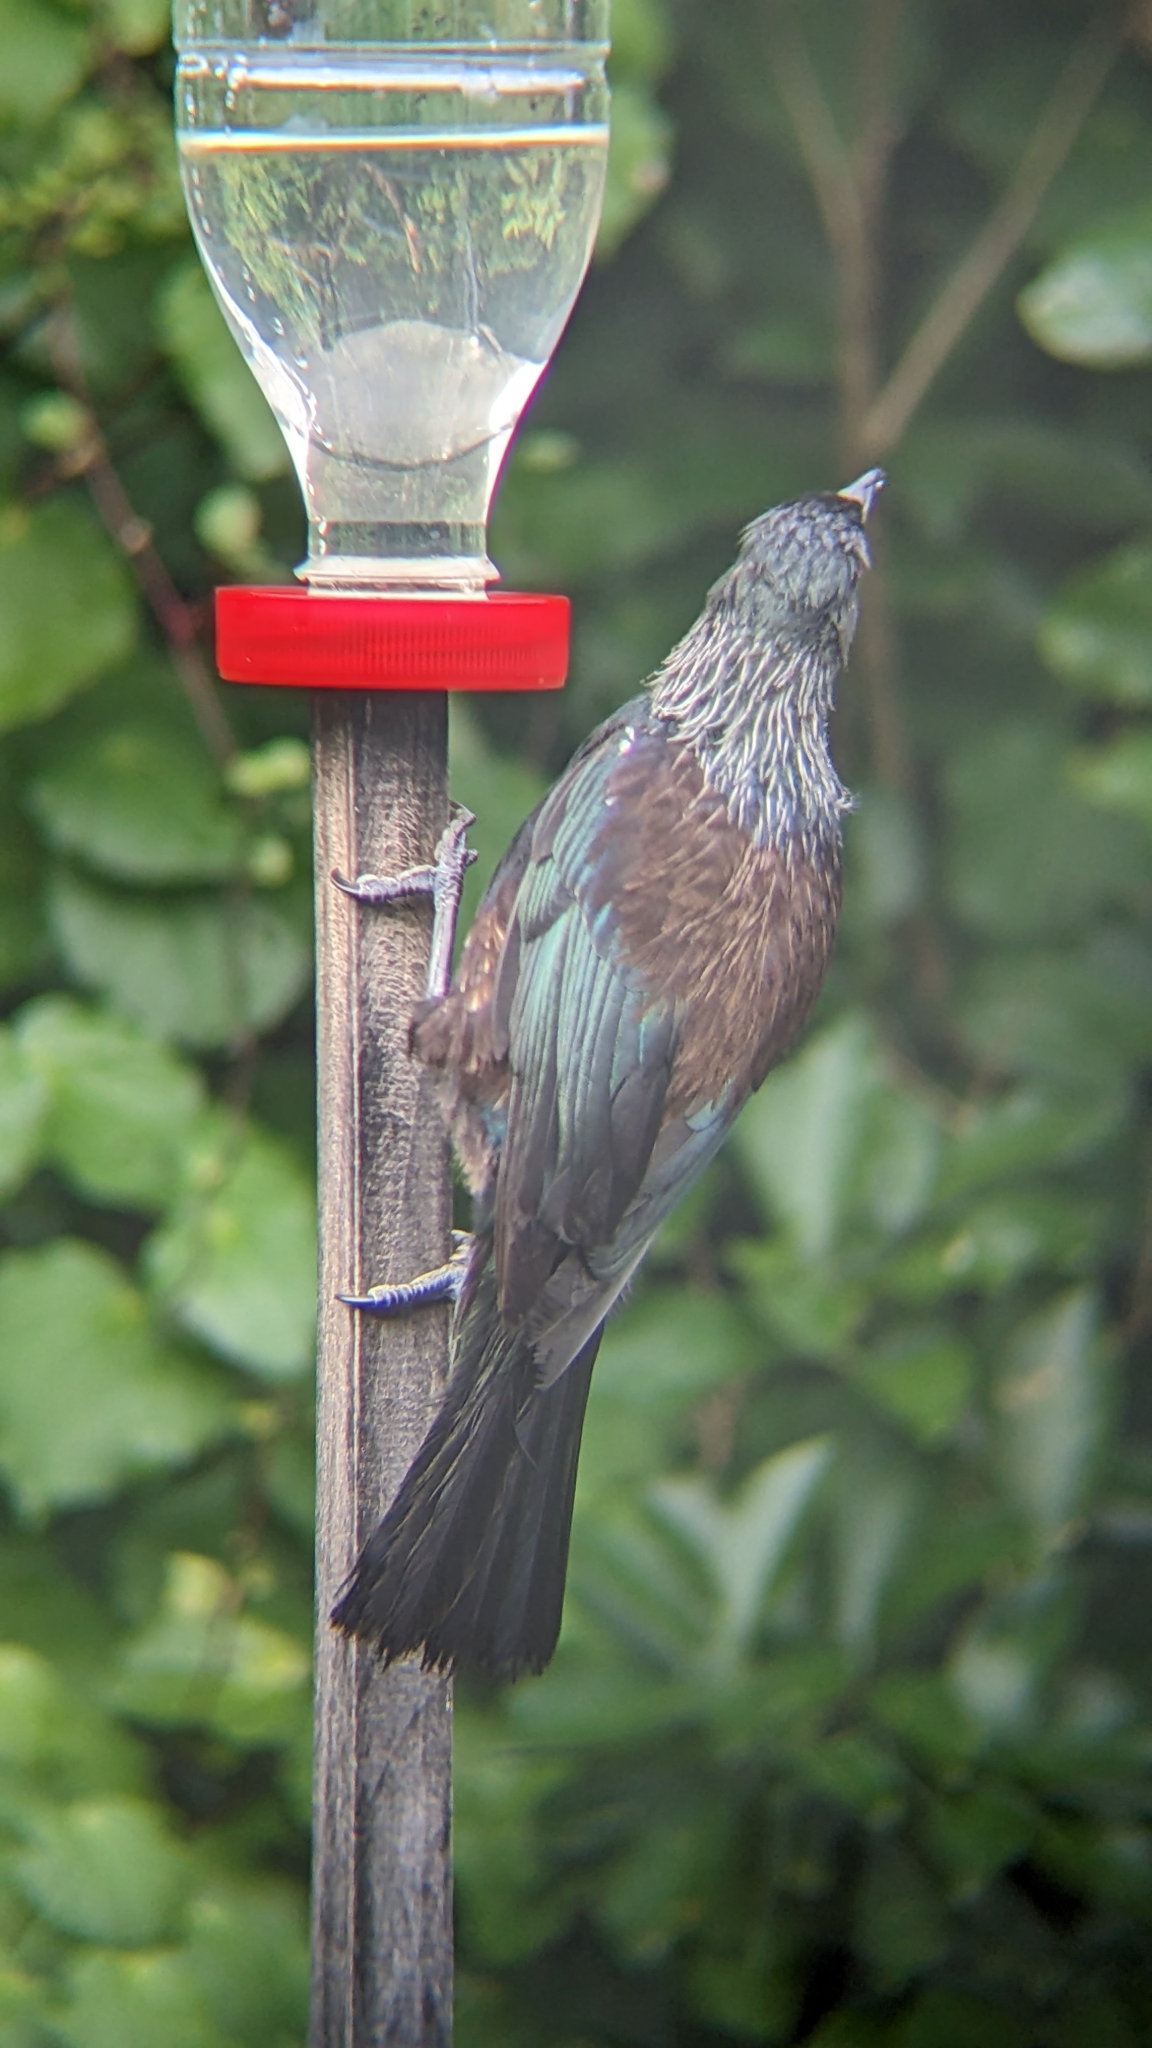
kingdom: Animalia
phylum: Chordata
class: Aves
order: Passeriformes
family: Meliphagidae
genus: Prosthemadera
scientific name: Prosthemadera novaeseelandiae
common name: Tui
